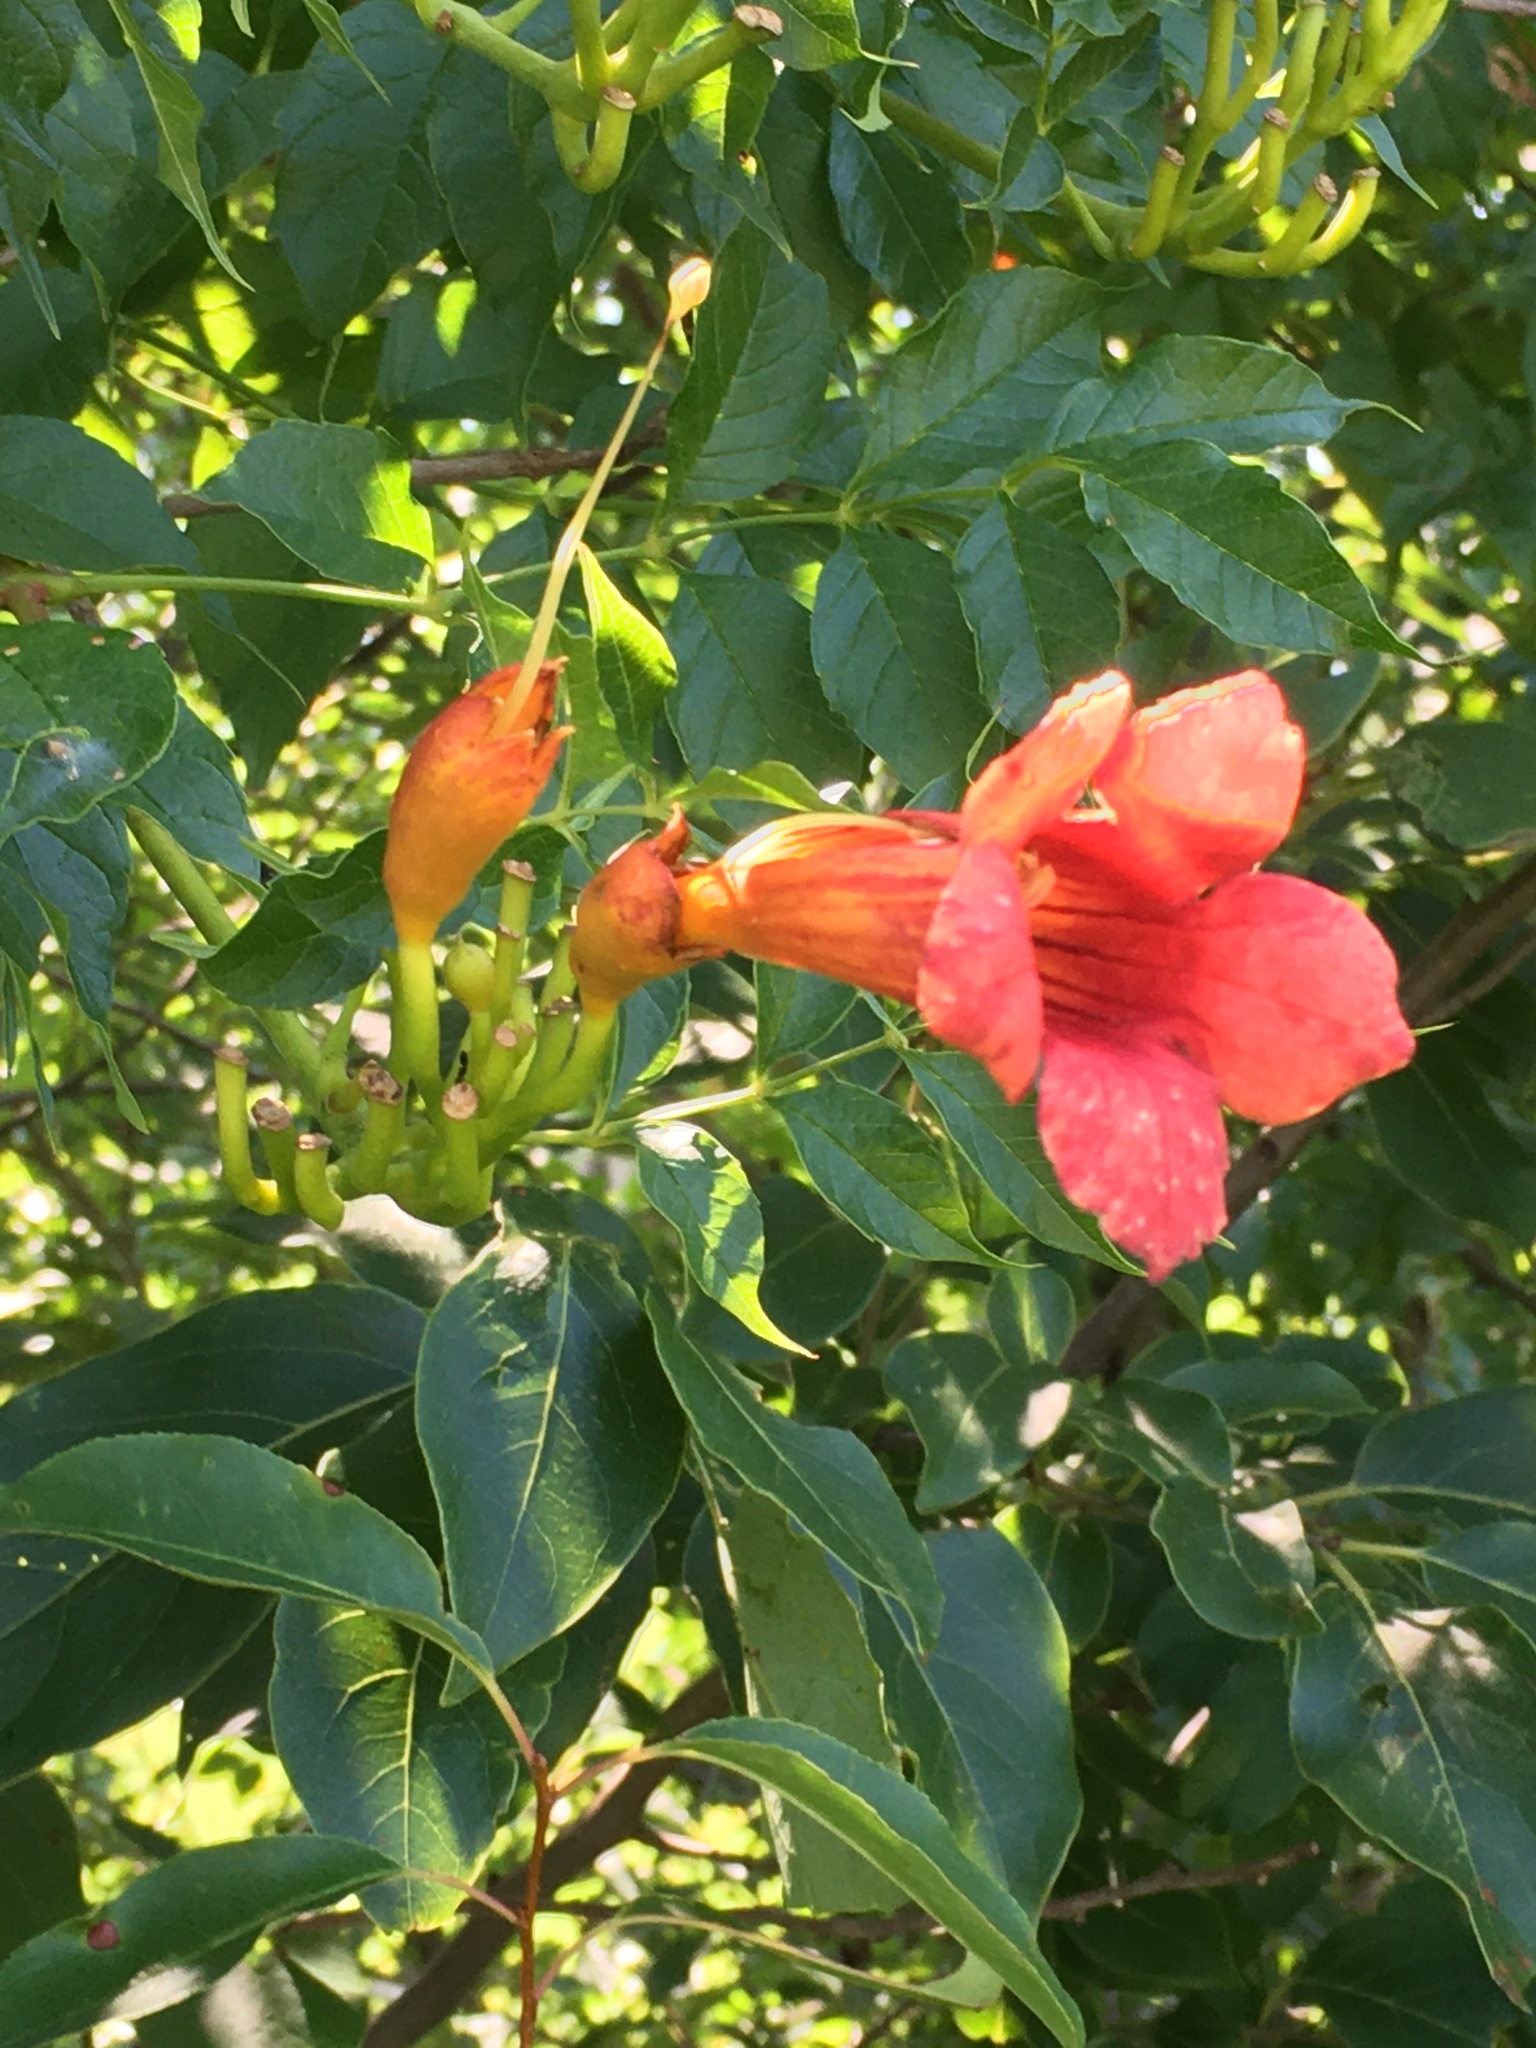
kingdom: Plantae
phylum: Tracheophyta
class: Magnoliopsida
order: Lamiales
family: Bignoniaceae
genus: Campsis
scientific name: Campsis radicans
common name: Trumpet-creeper
